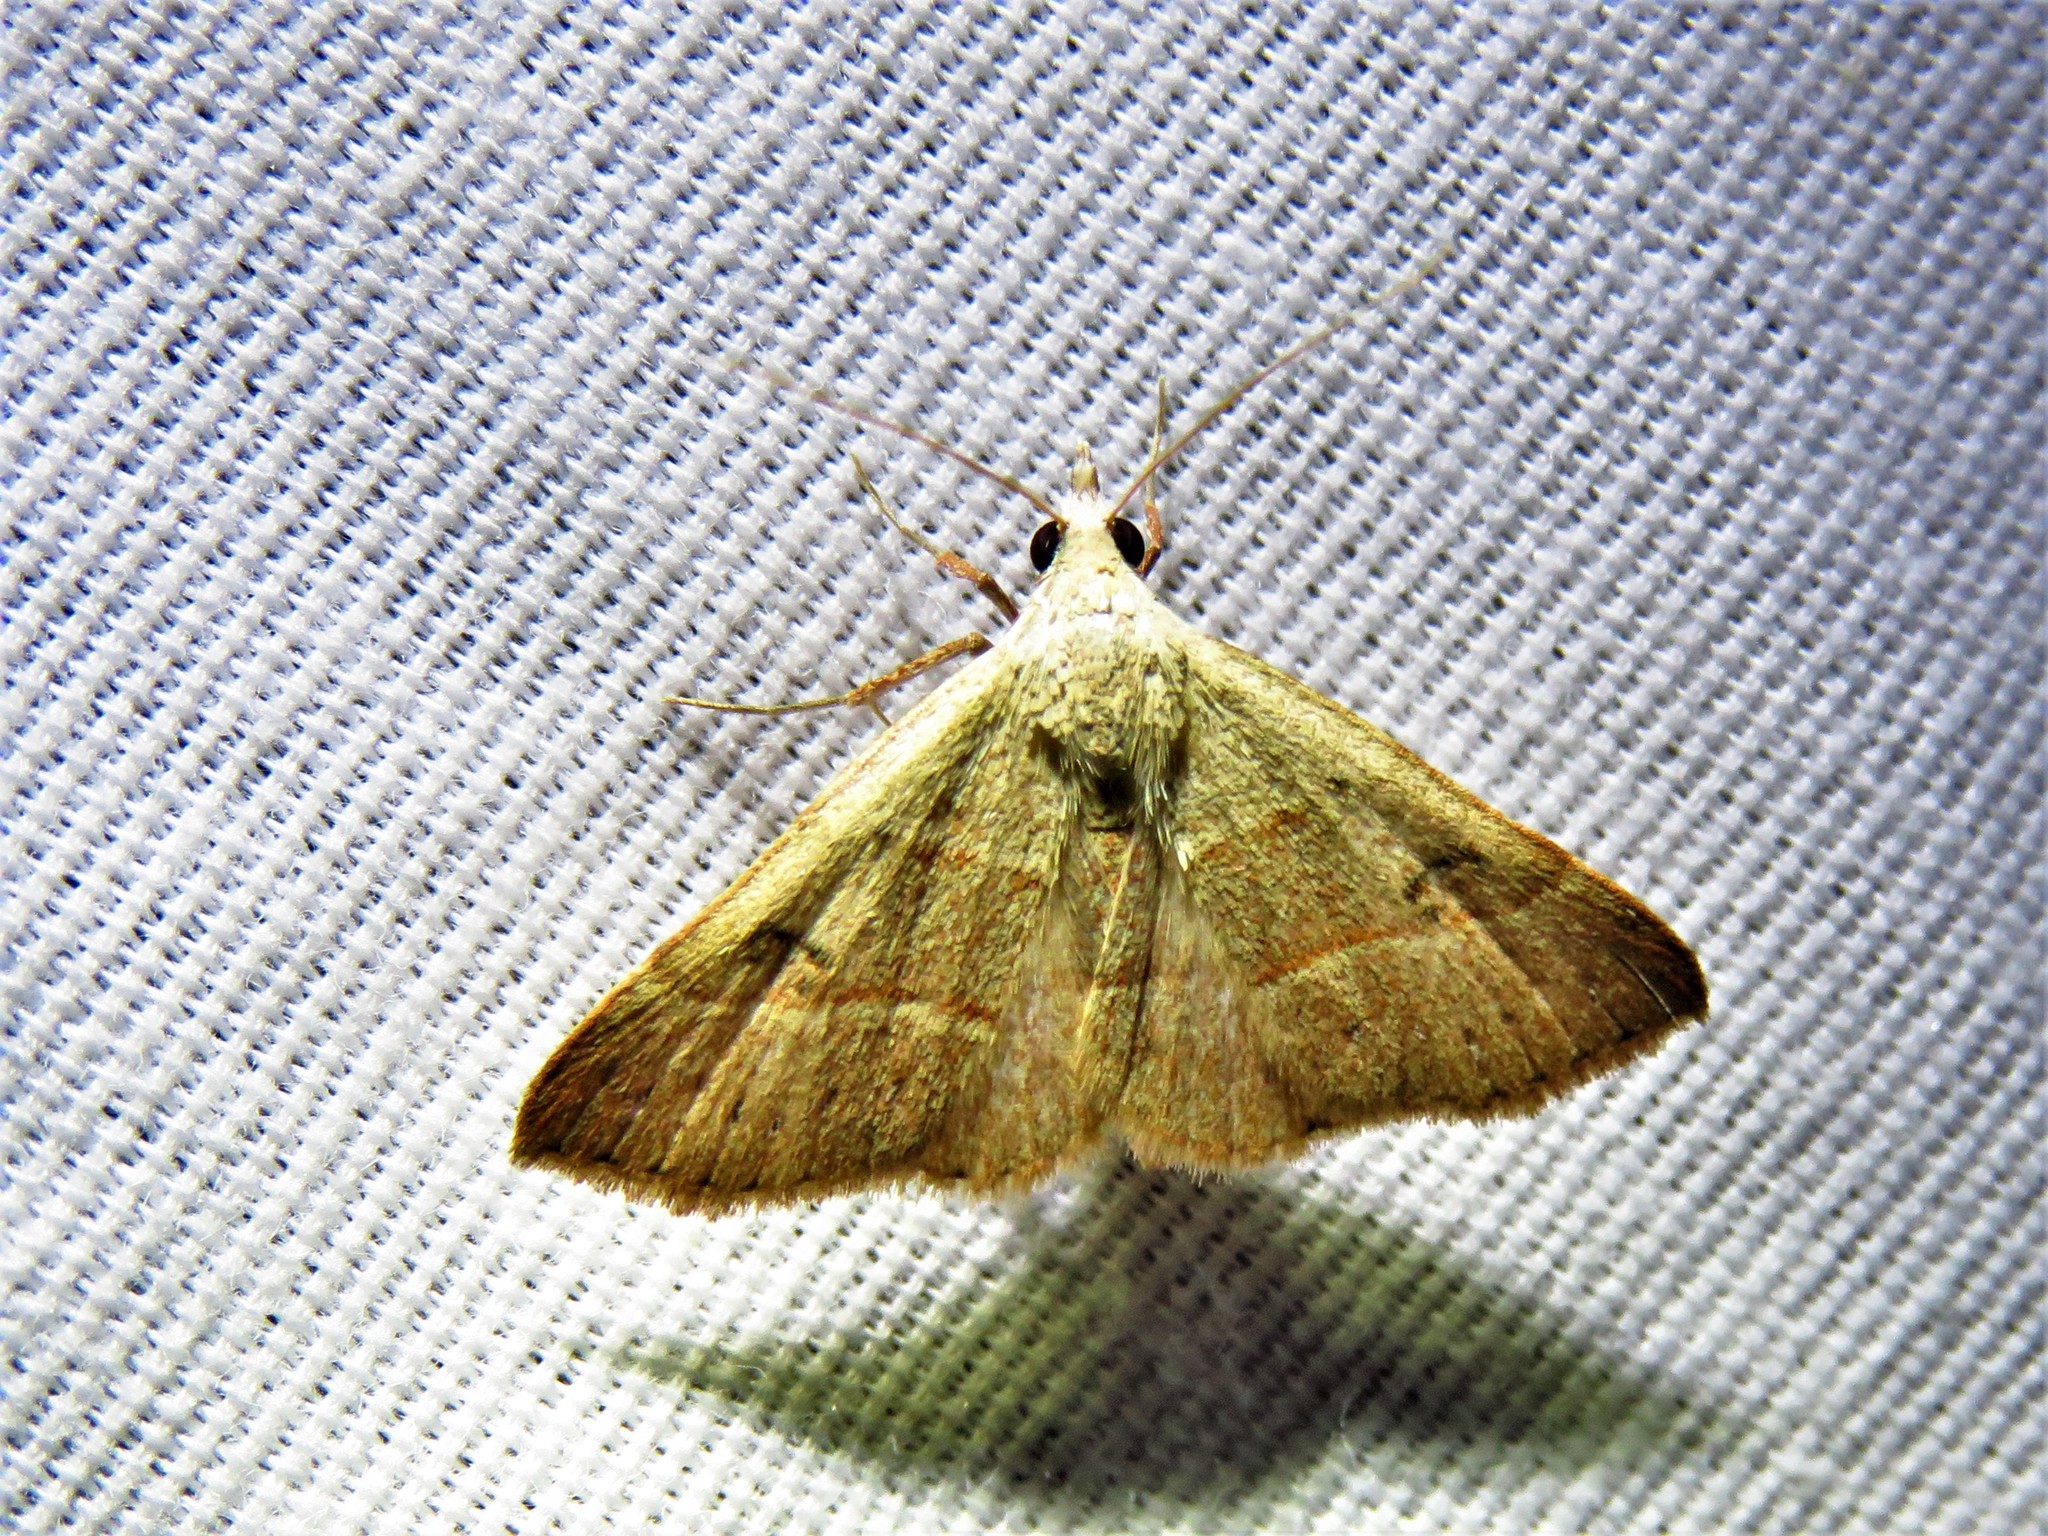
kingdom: Animalia
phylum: Arthropoda
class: Insecta
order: Lepidoptera
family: Erebidae
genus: Hemeroplanis
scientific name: Hemeroplanis habitalis
